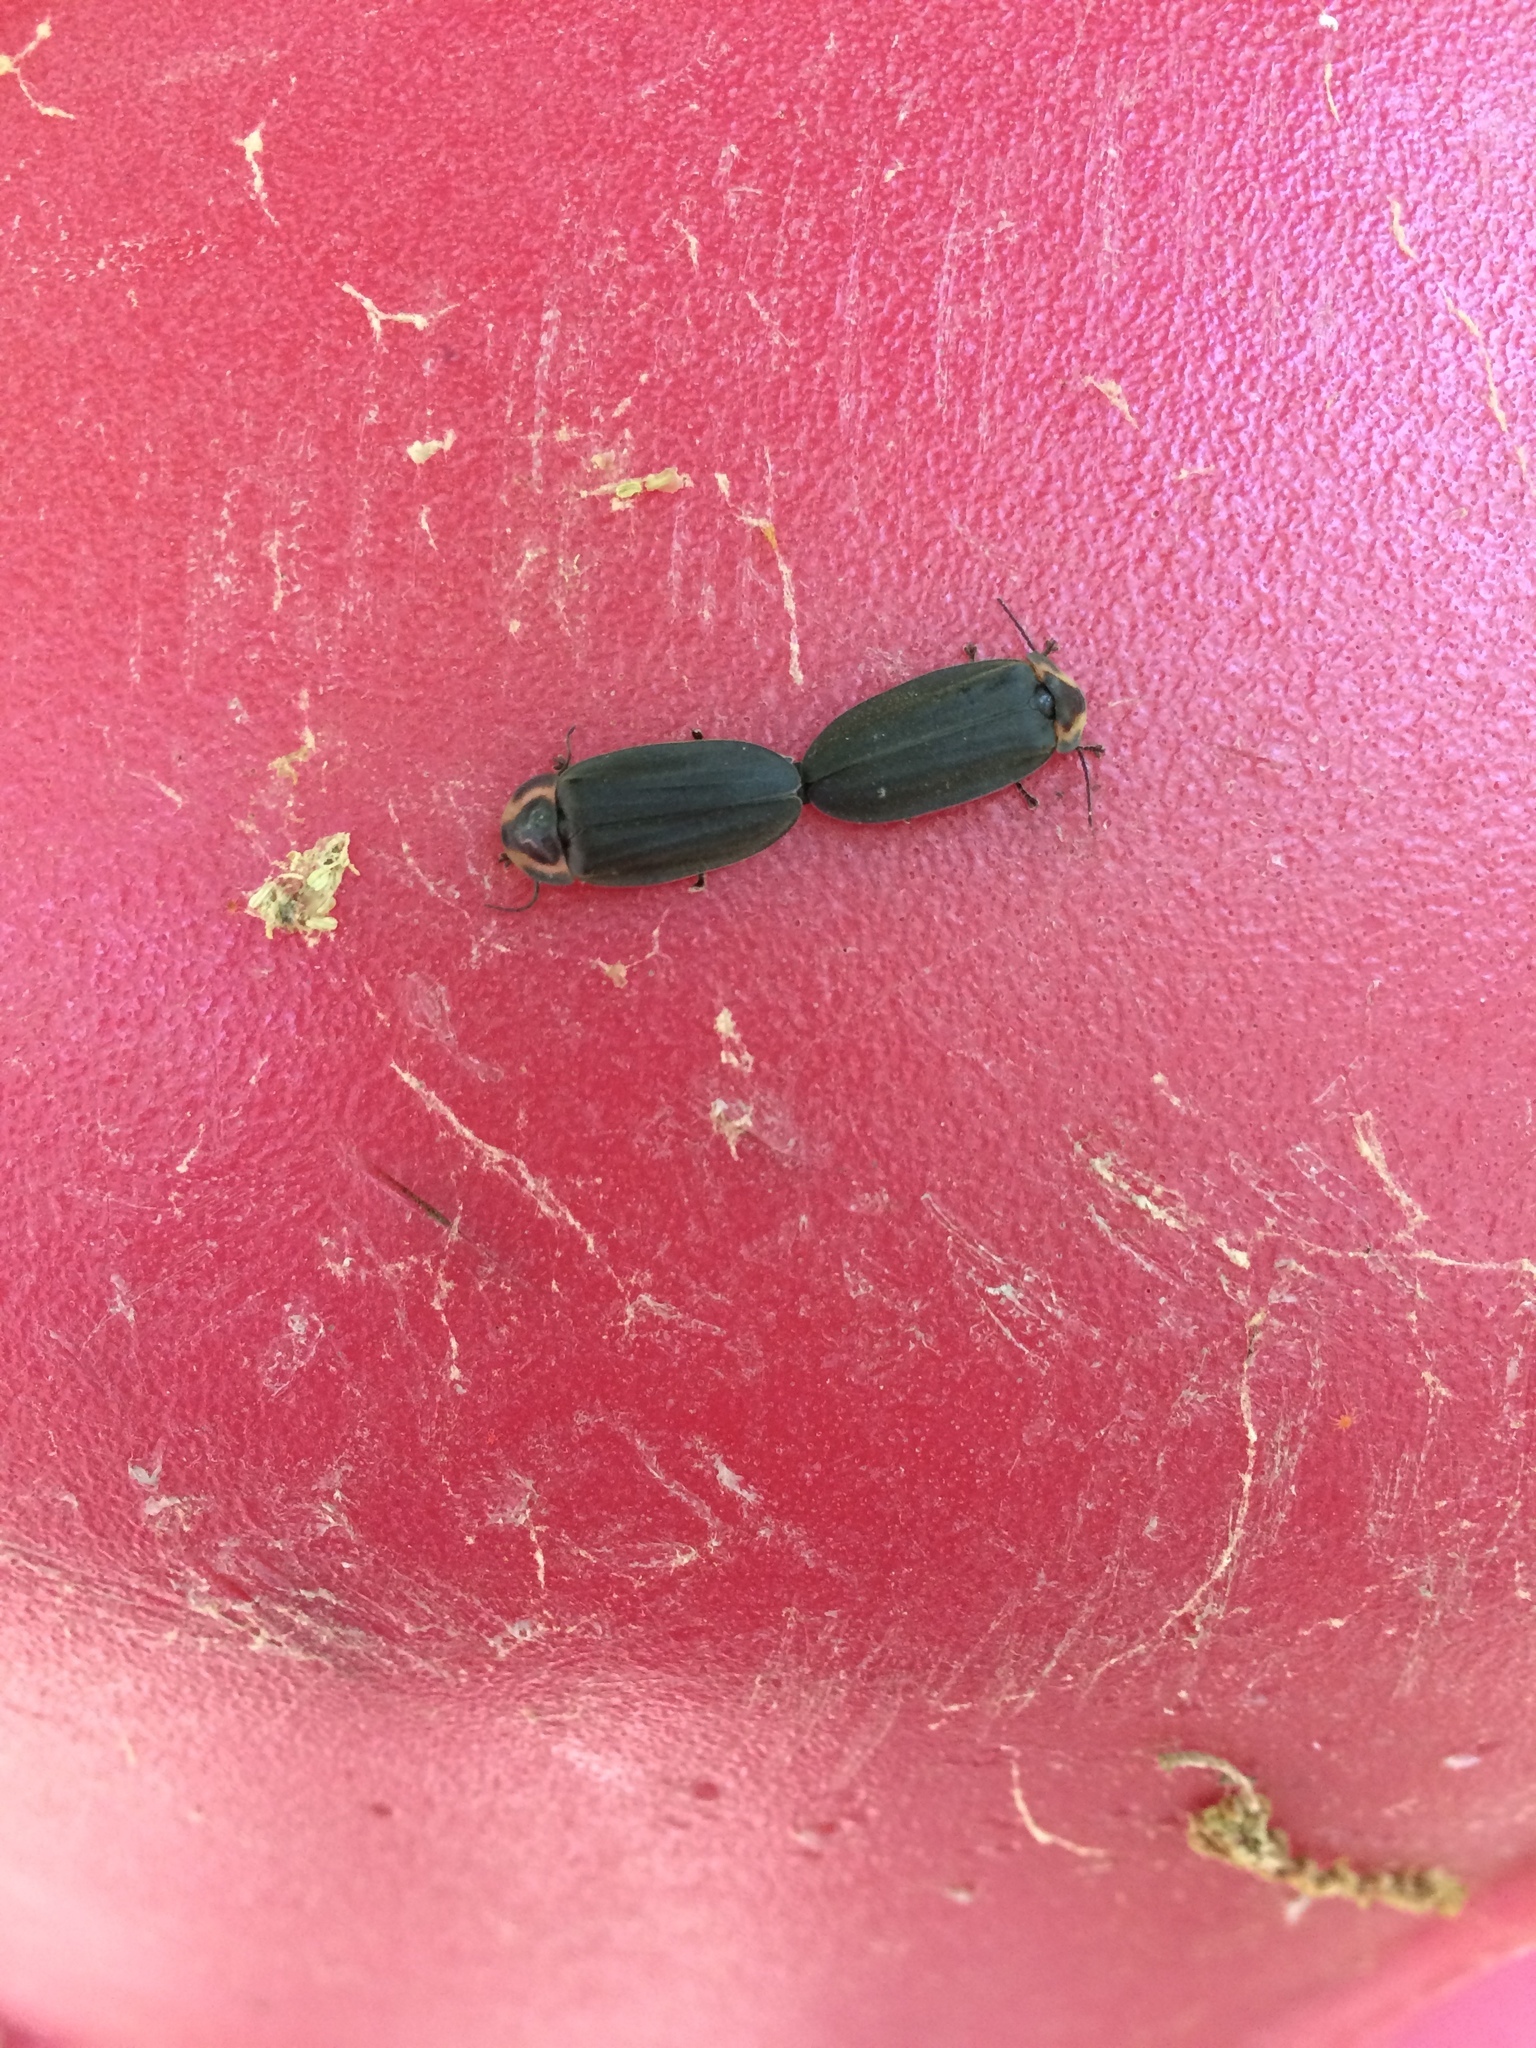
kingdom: Animalia
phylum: Arthropoda
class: Insecta
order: Coleoptera
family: Lampyridae
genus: Photinus
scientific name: Photinus corrusca
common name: Winter firefly
